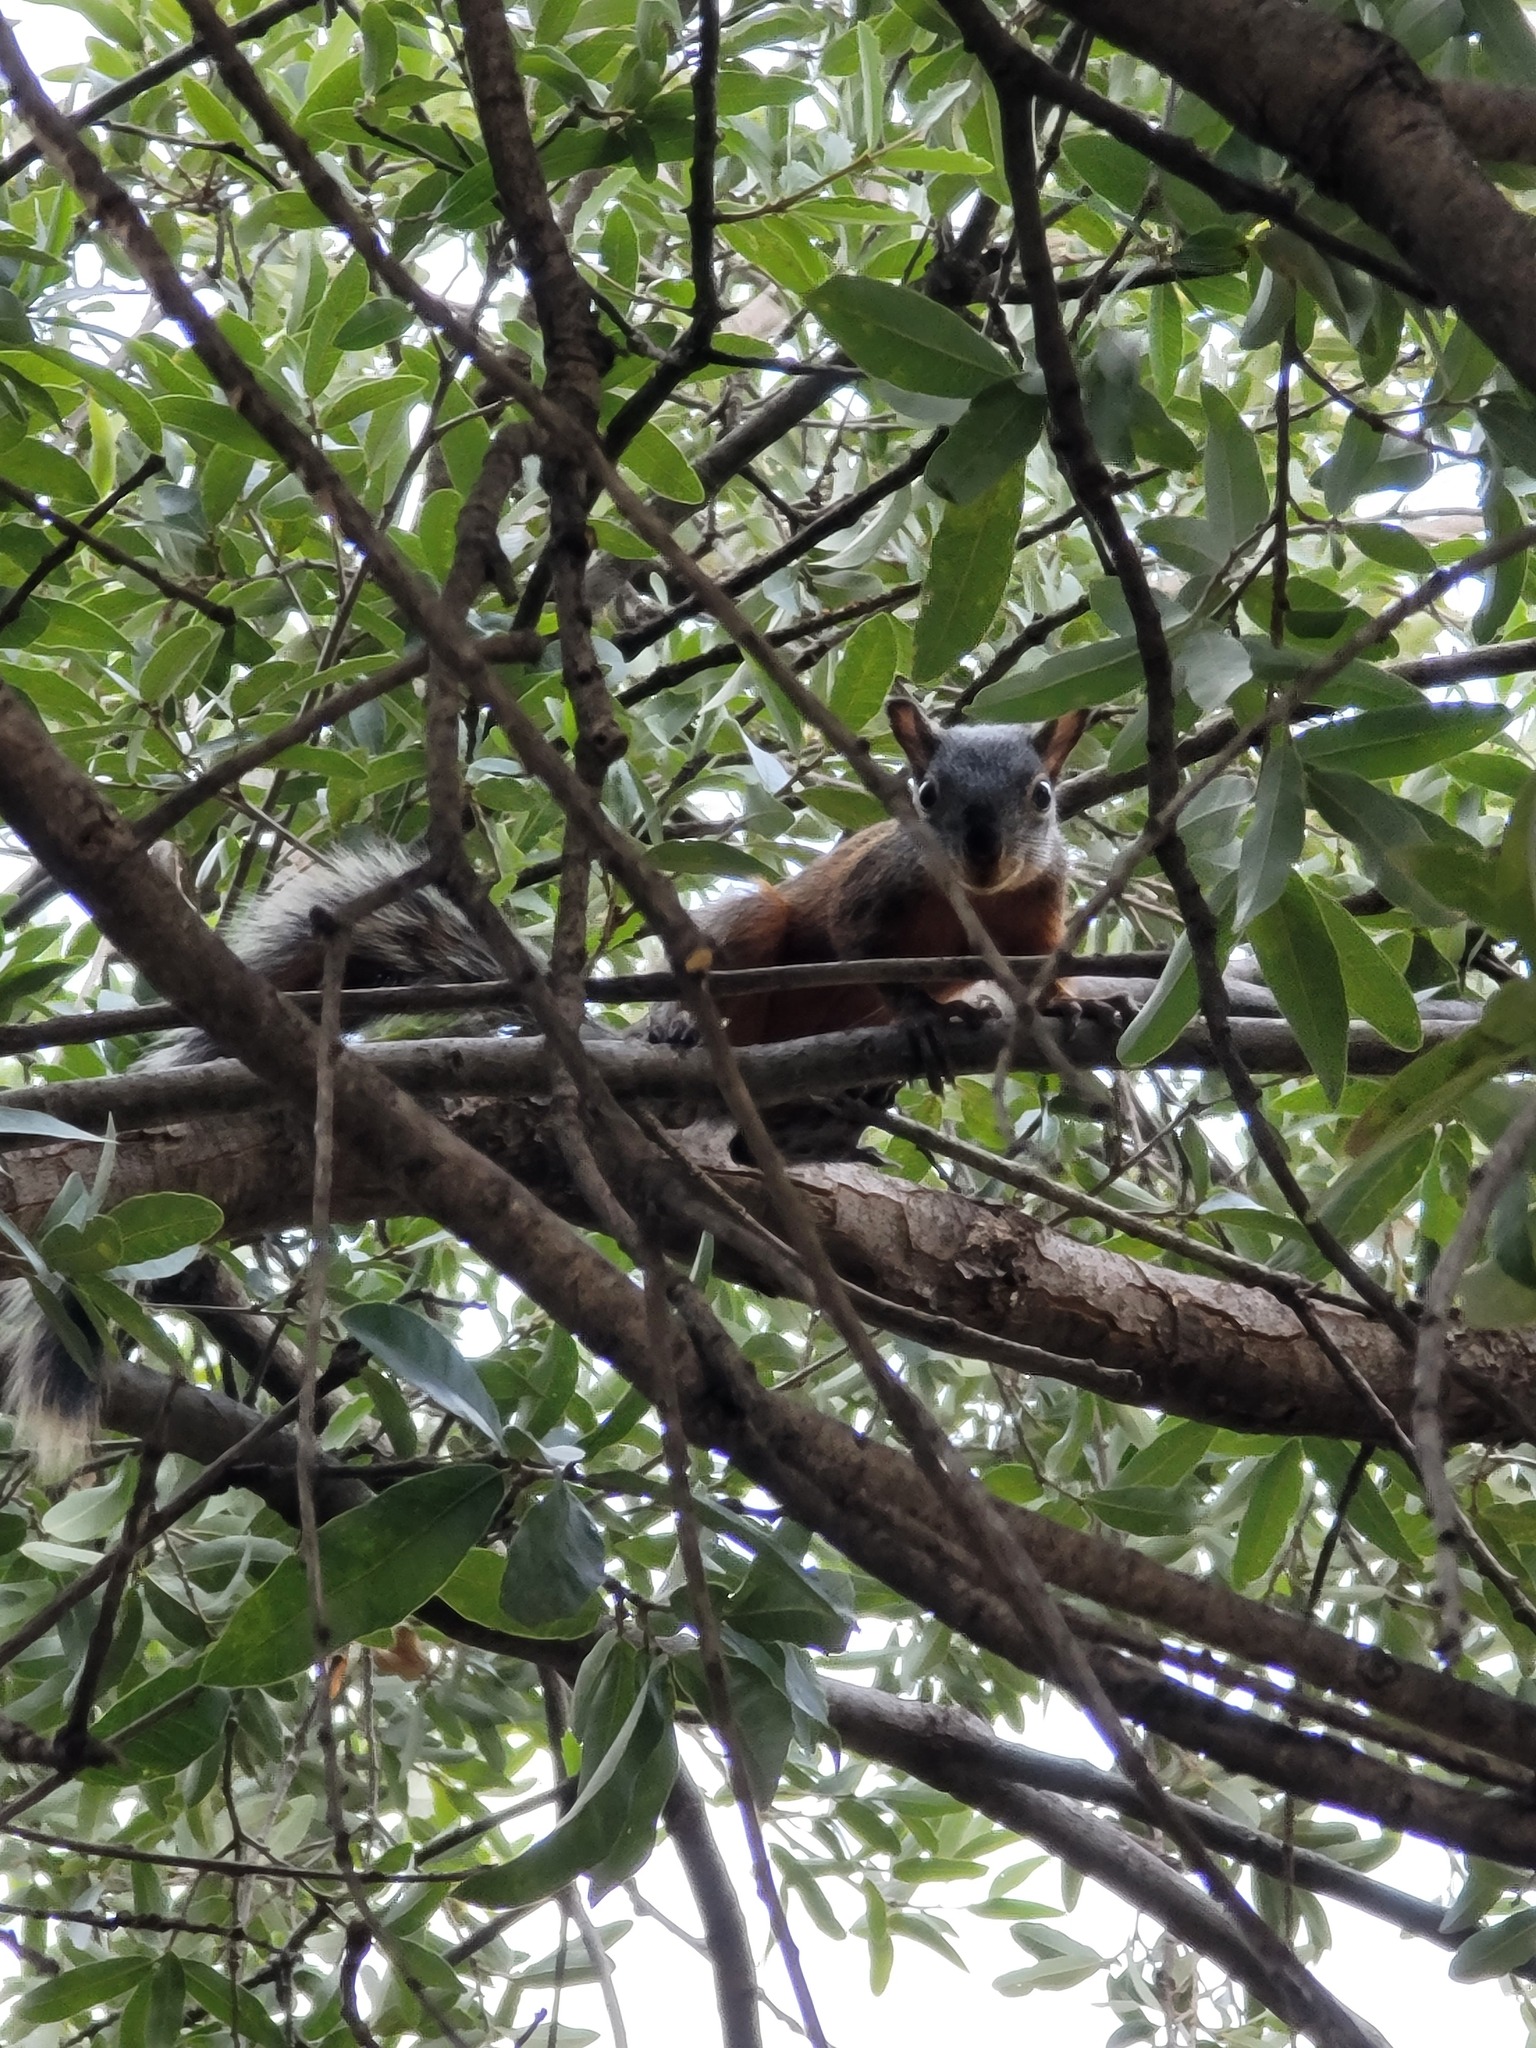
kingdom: Animalia
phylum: Chordata
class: Mammalia
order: Rodentia
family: Sciuridae
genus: Sciurus
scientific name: Sciurus aureogaster
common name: Red-bellied squirrel
